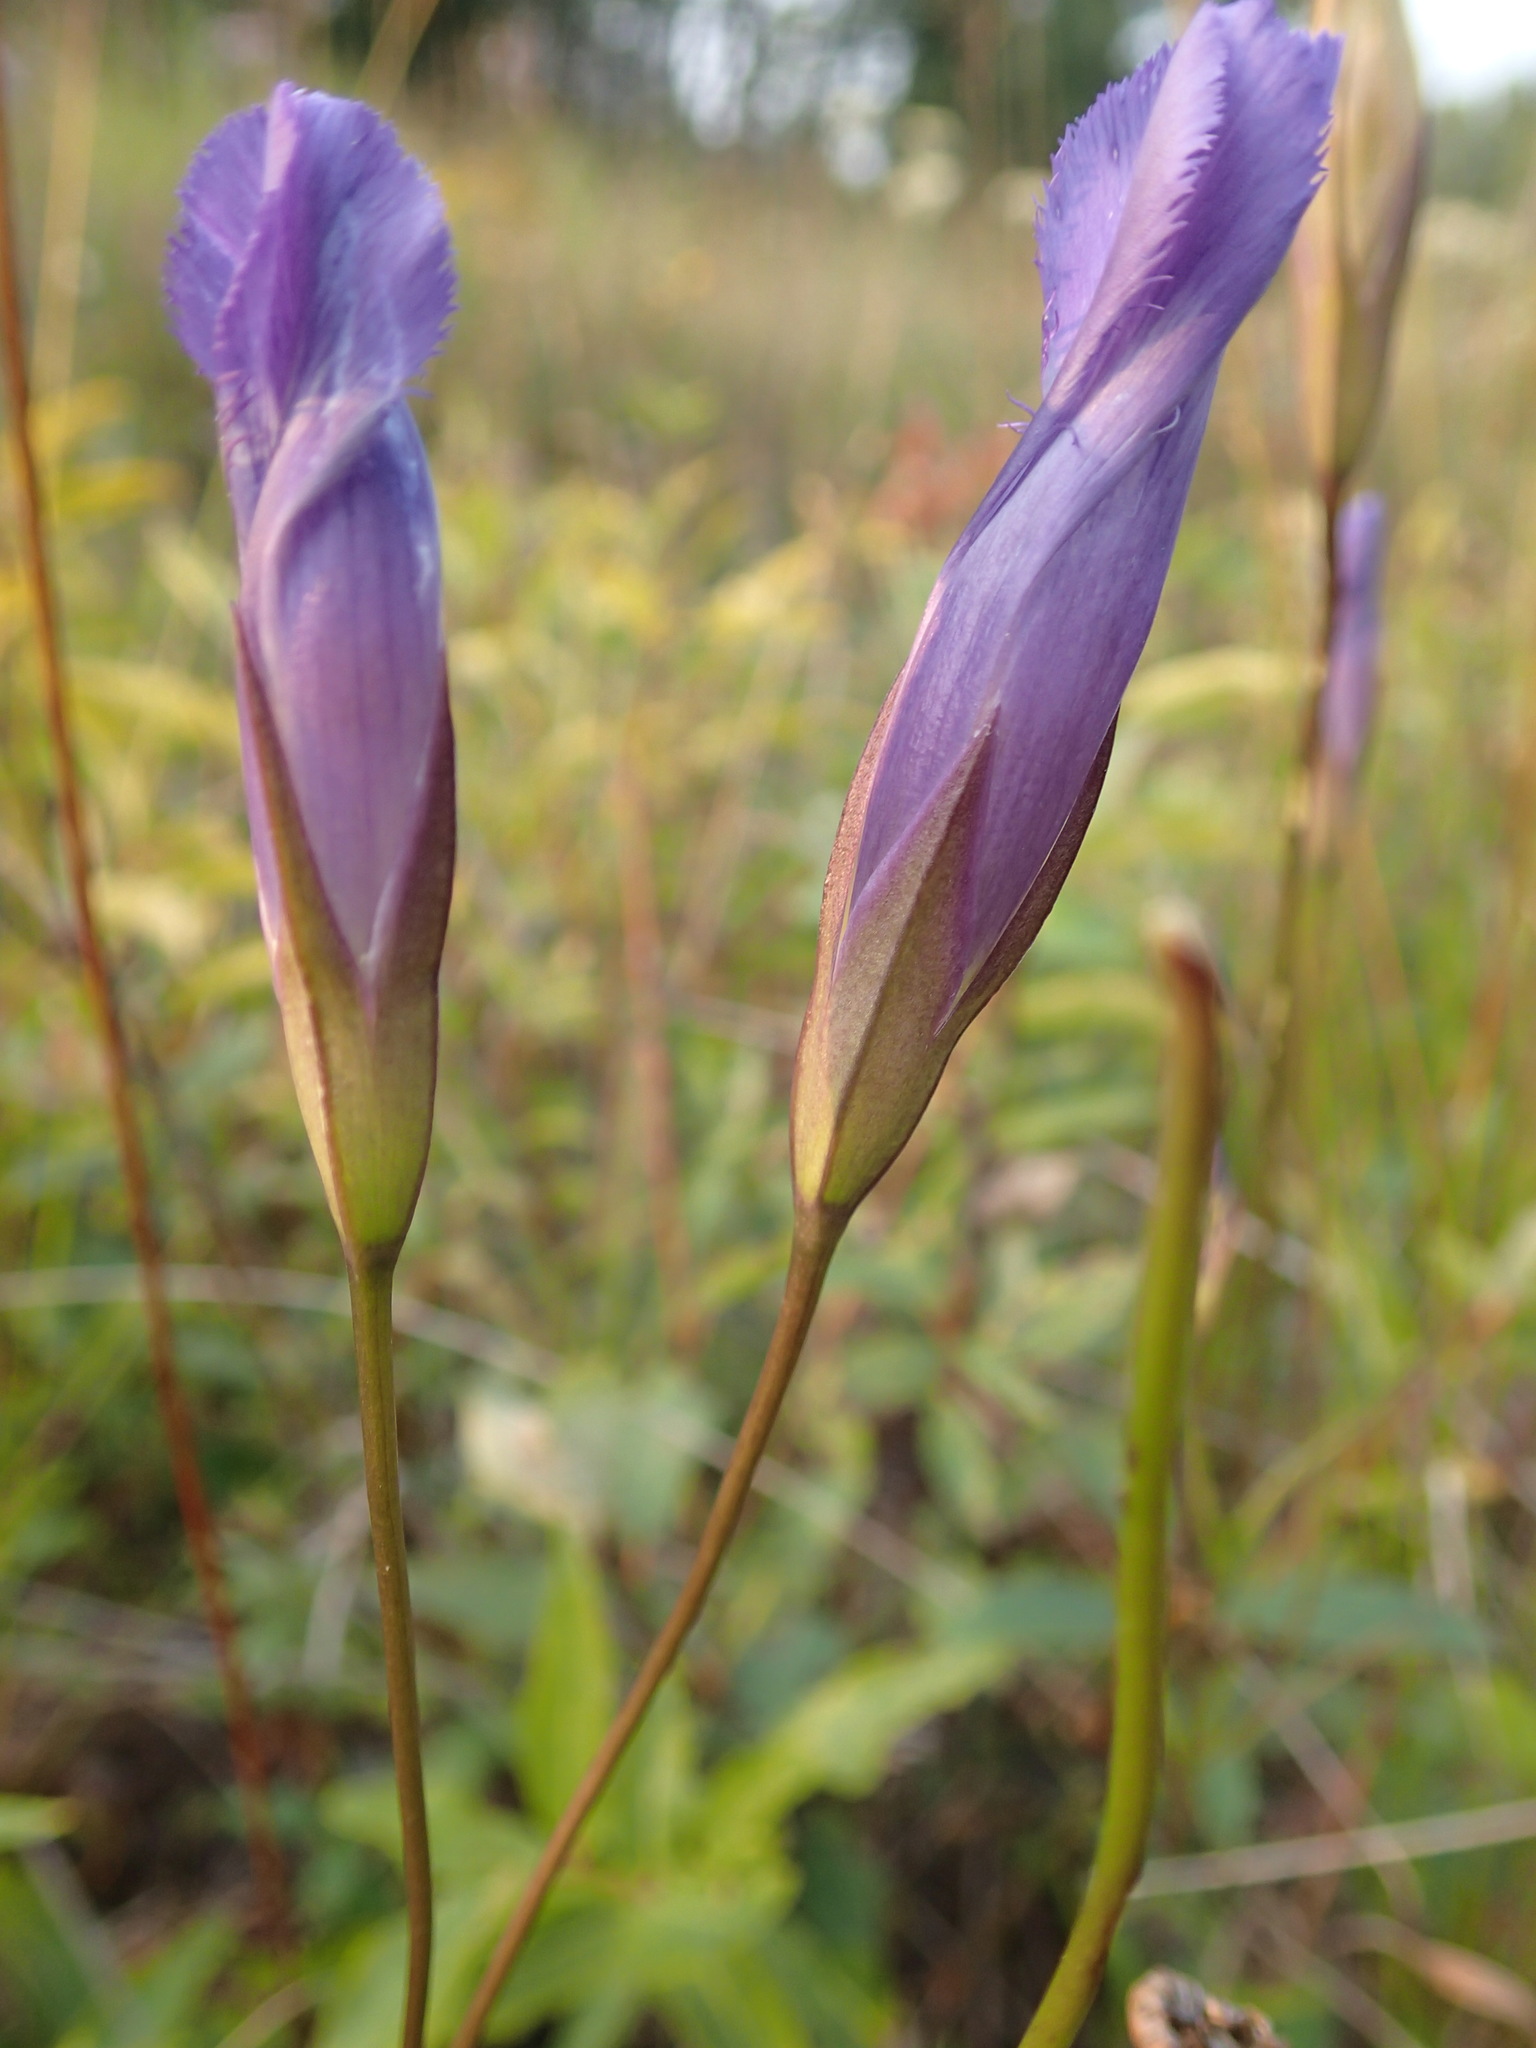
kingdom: Plantae
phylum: Tracheophyta
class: Magnoliopsida
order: Gentianales
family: Gentianaceae
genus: Gentianopsis
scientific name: Gentianopsis virgata
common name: Lesser fringed-gentian
